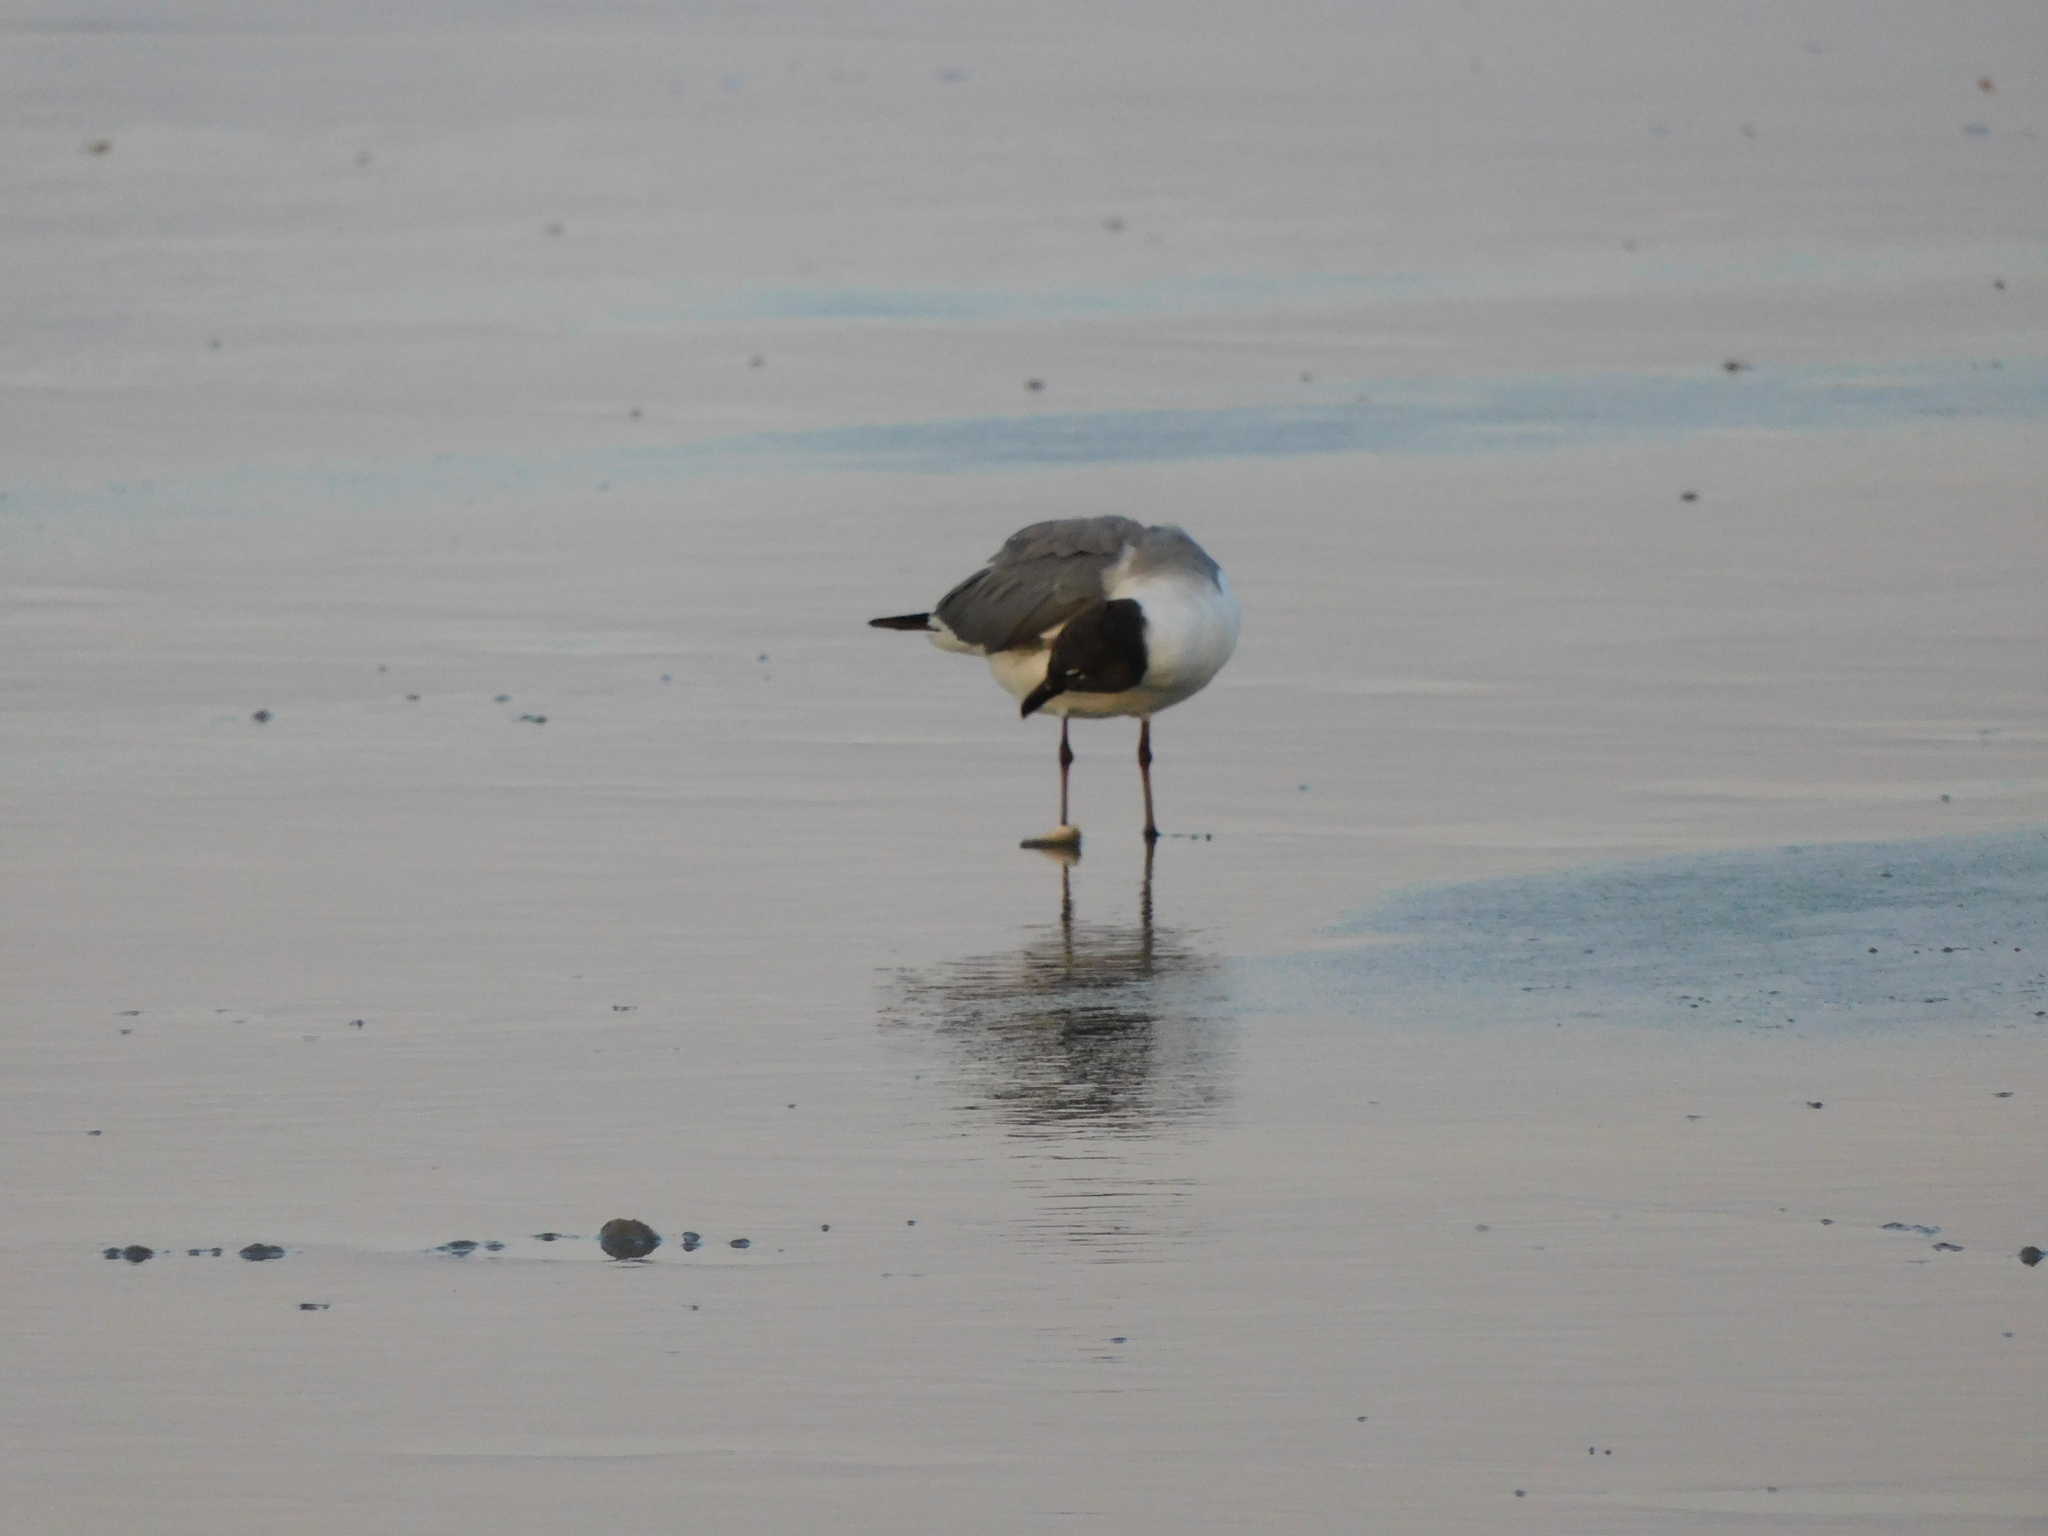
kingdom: Animalia
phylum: Chordata
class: Aves
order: Charadriiformes
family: Laridae
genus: Leucophaeus
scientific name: Leucophaeus atricilla
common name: Laughing gull
